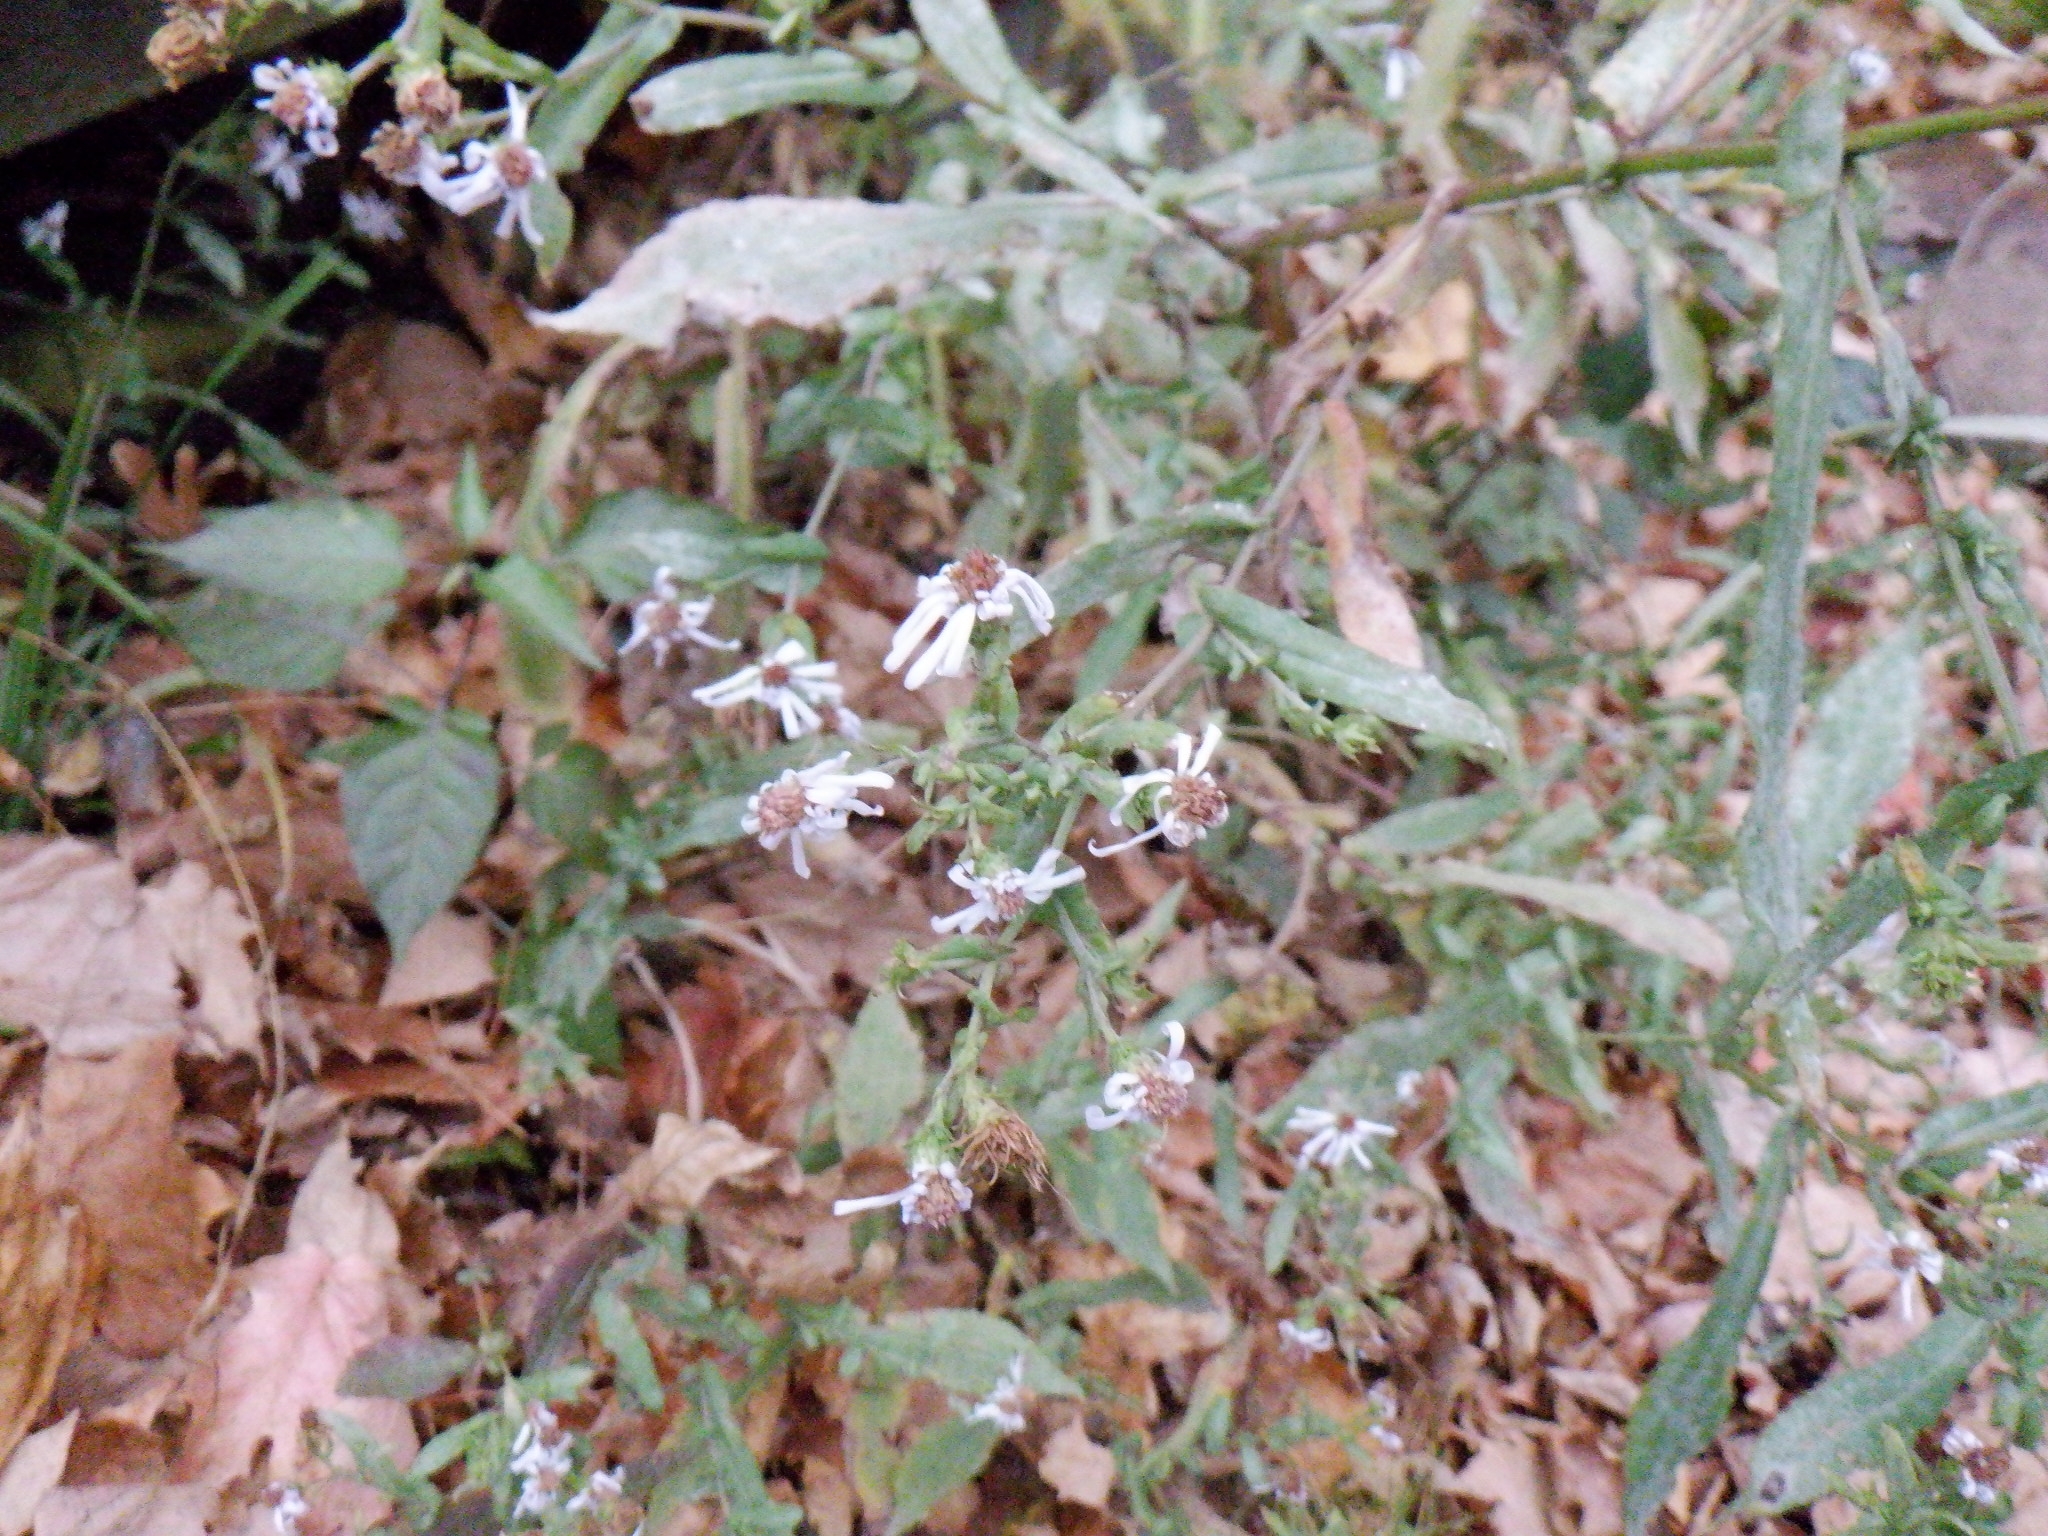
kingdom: Plantae
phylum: Tracheophyta
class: Magnoliopsida
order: Asterales
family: Asteraceae
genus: Symphyotrichum
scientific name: Symphyotrichum prenanthoides
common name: Crooked-stem aster
